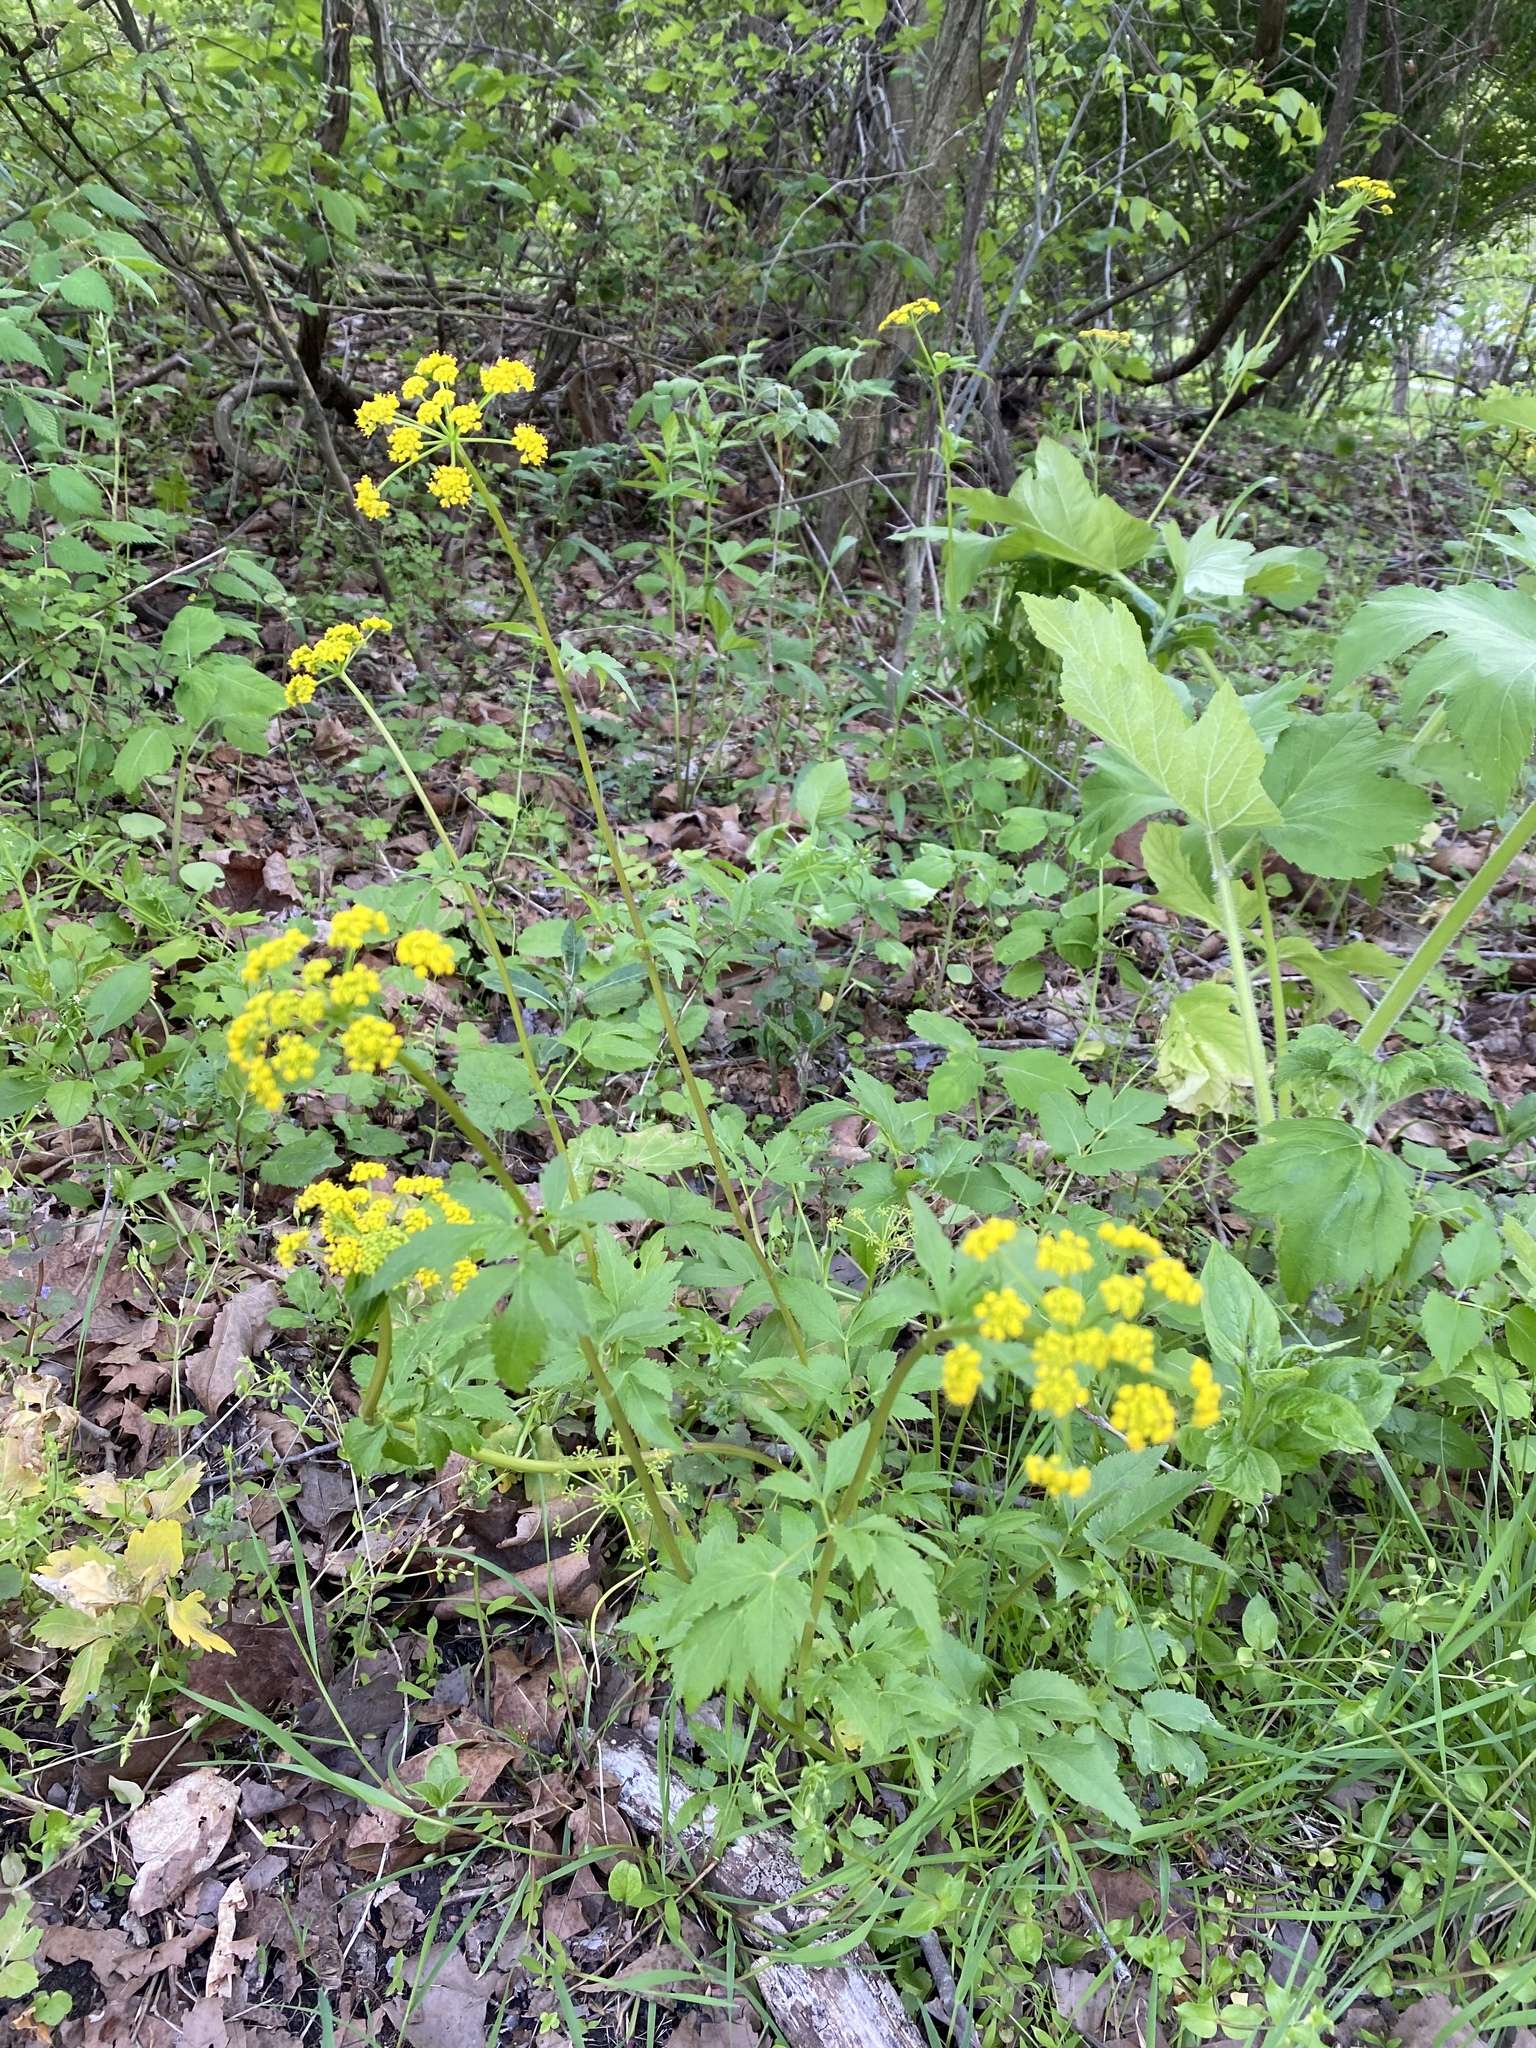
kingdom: Plantae
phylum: Tracheophyta
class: Magnoliopsida
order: Apiales
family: Apiaceae
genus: Zizia
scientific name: Zizia aurea
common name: Golden alexanders
